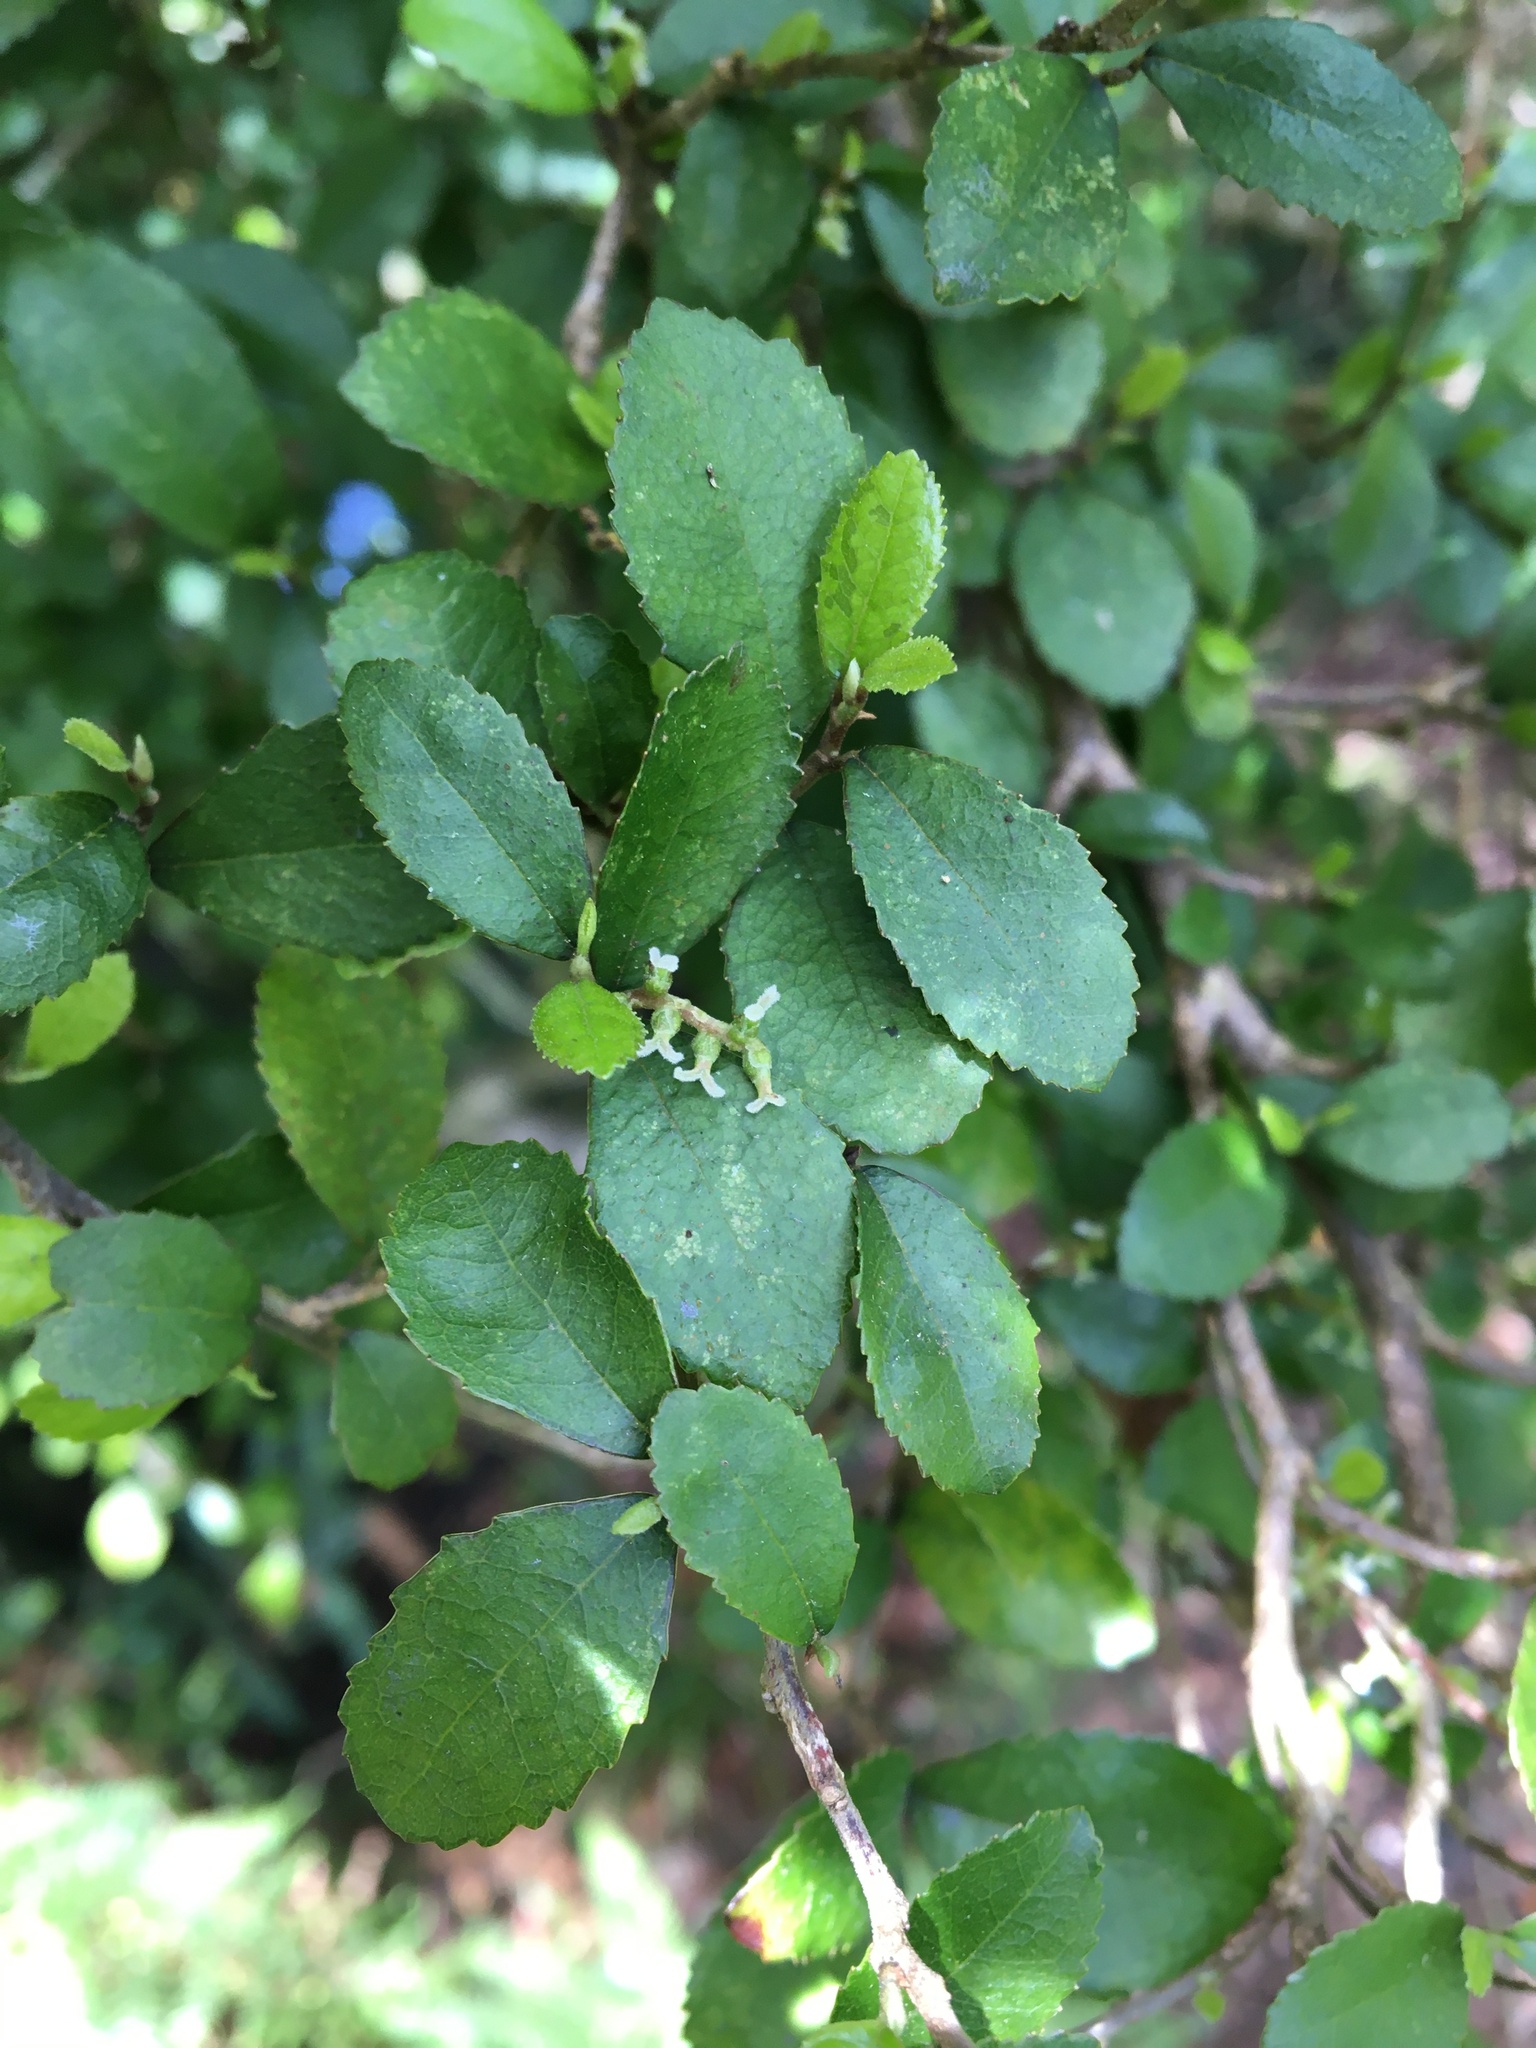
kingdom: Plantae
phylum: Tracheophyta
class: Magnoliopsida
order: Rosales
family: Moraceae
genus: Paratrophis
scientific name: Paratrophis microphylla
